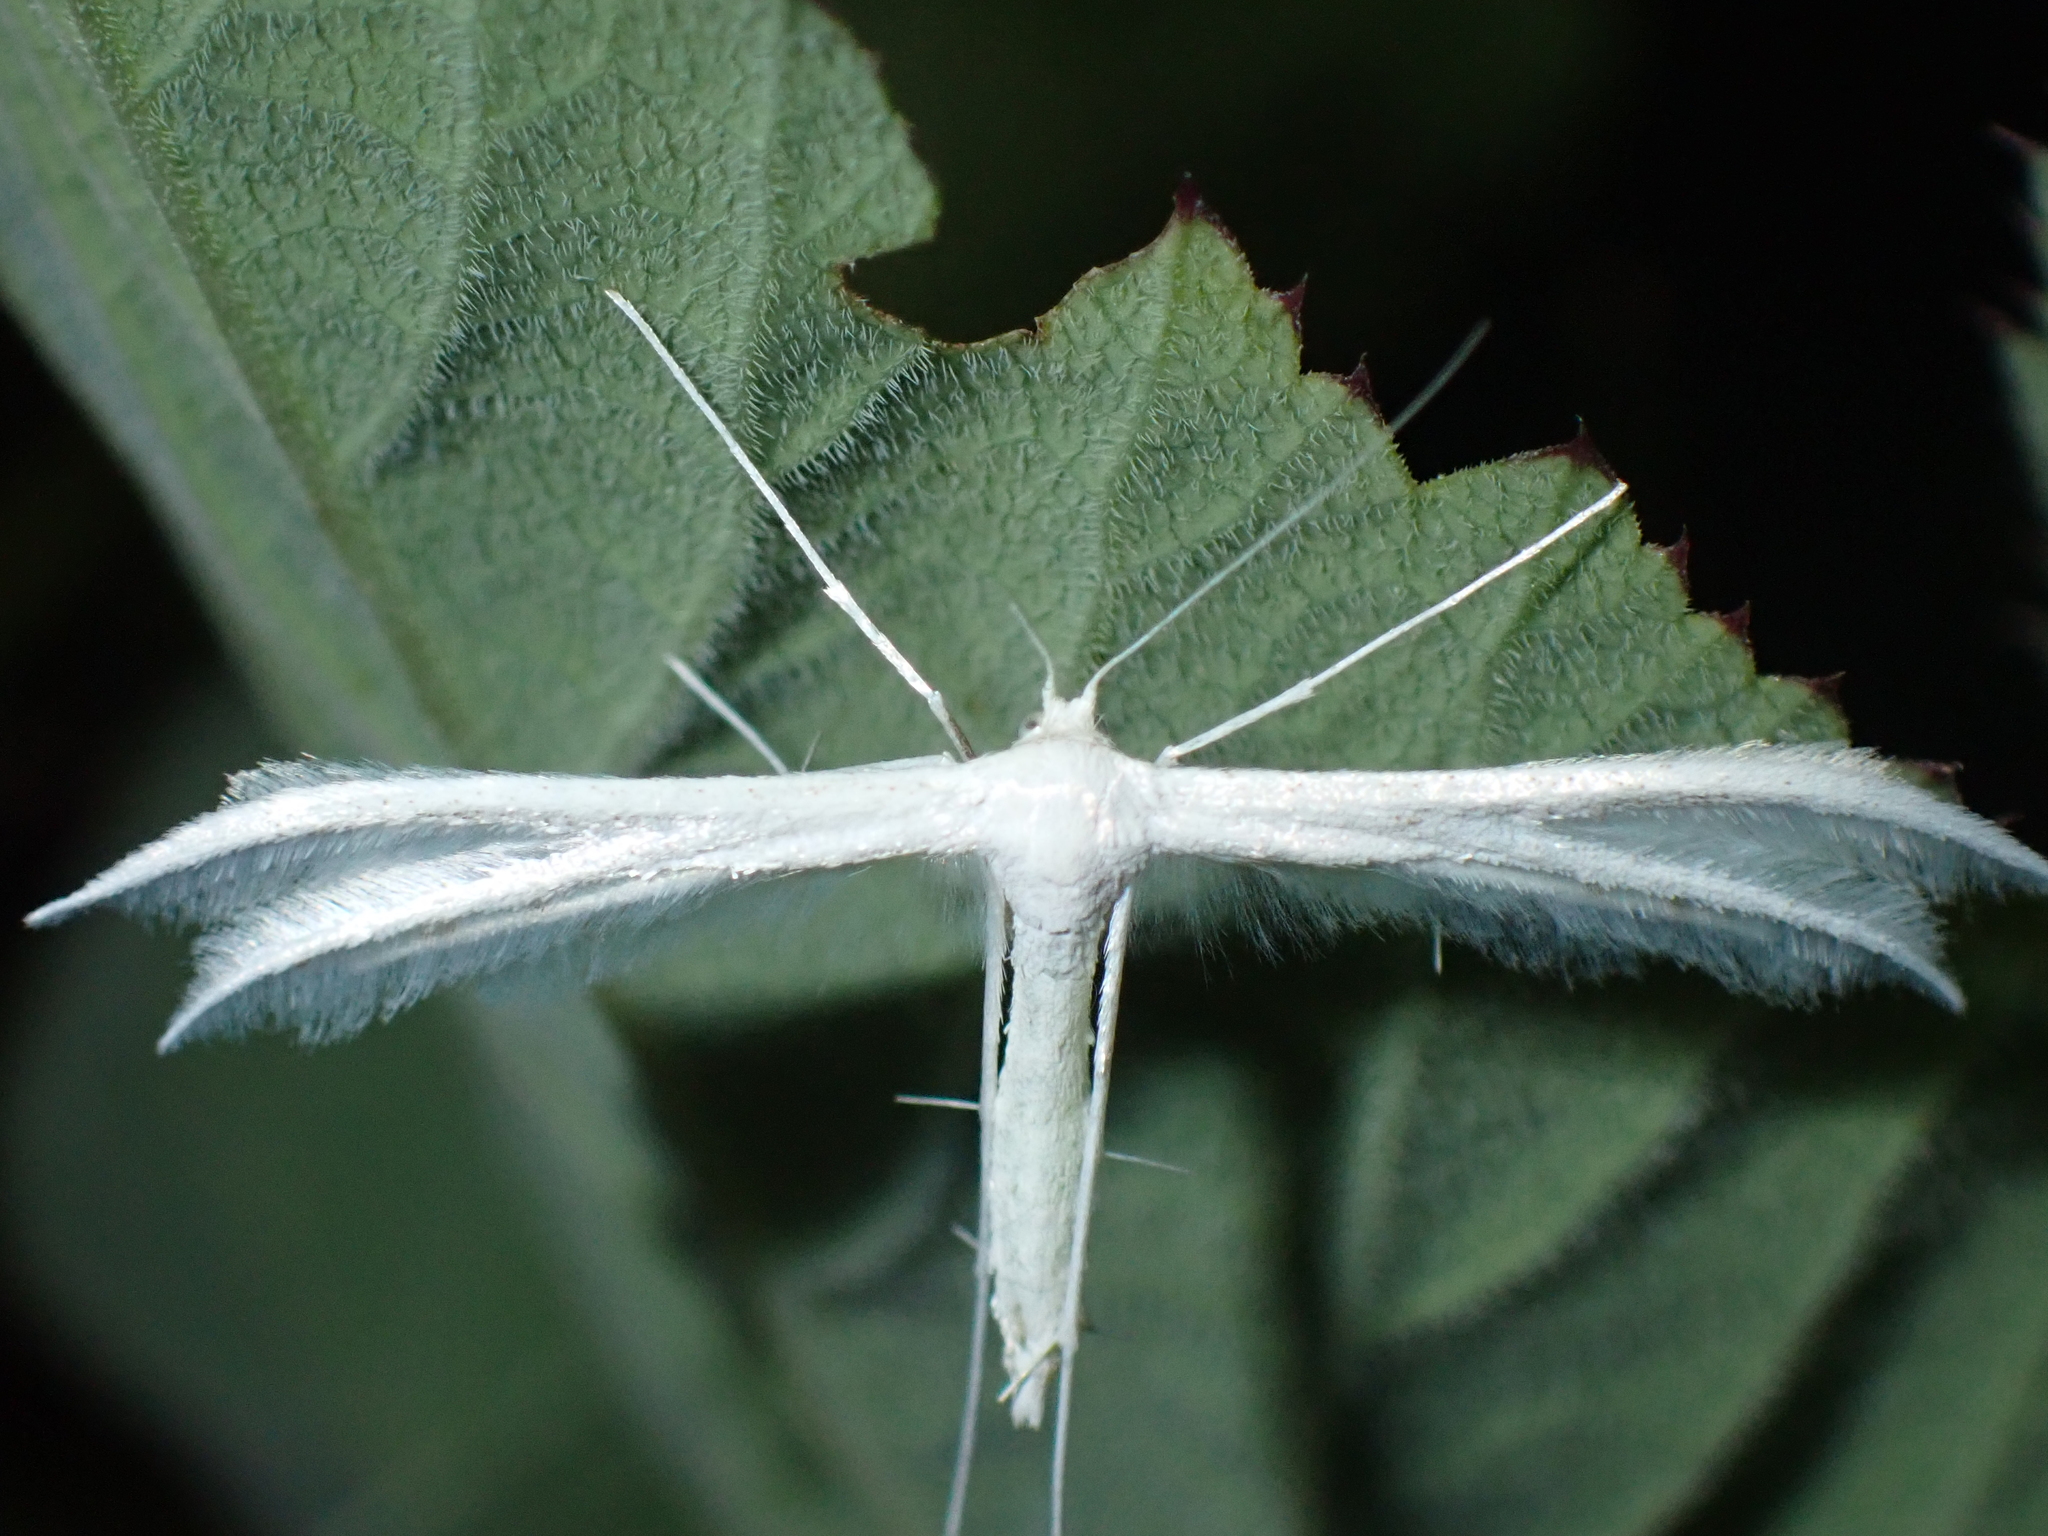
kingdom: Animalia
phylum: Arthropoda
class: Insecta
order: Lepidoptera
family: Pterophoridae
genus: Pterophorus
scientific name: Pterophorus pentadactyla
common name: White plume moth
